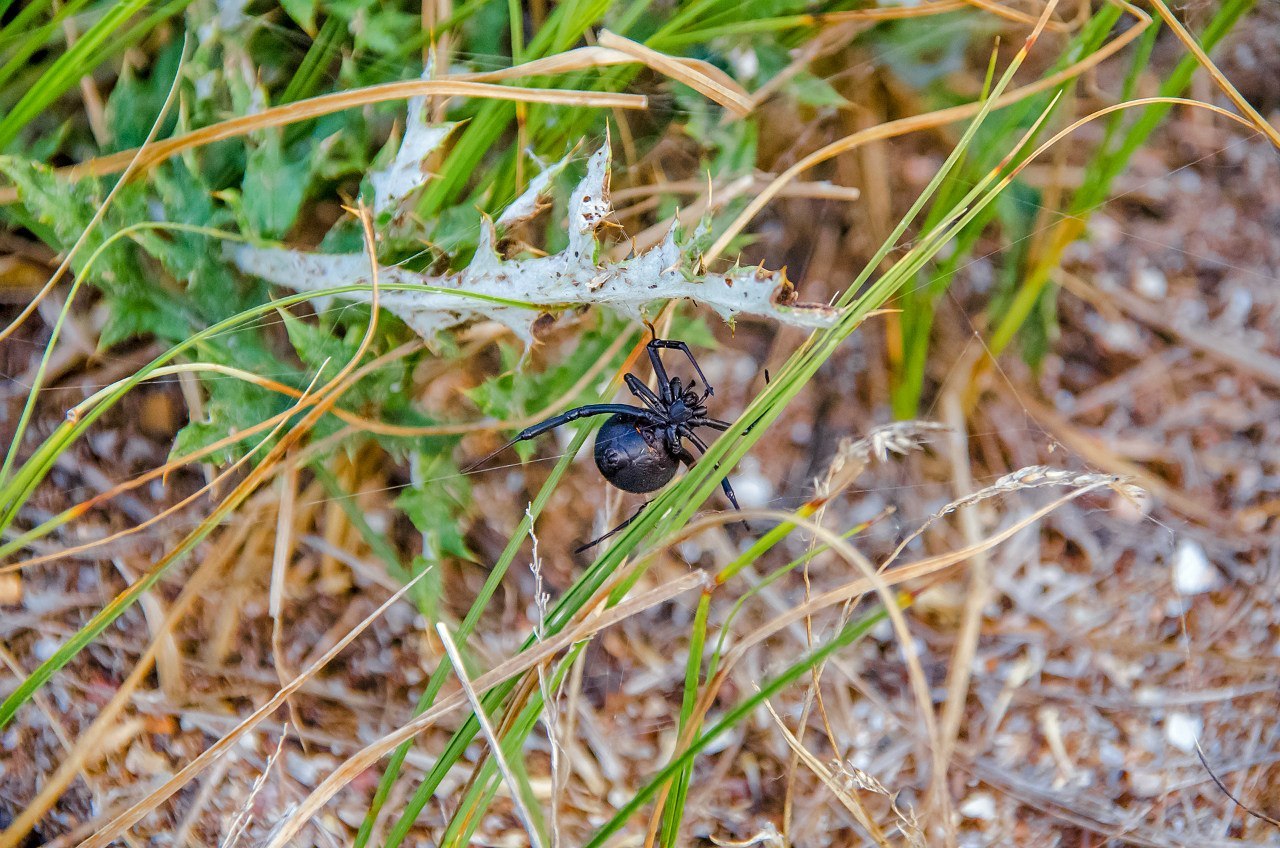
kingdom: Animalia
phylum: Arthropoda
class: Arachnida
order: Araneae
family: Theridiidae
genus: Latrodectus
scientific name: Latrodectus tredecimguttatus
